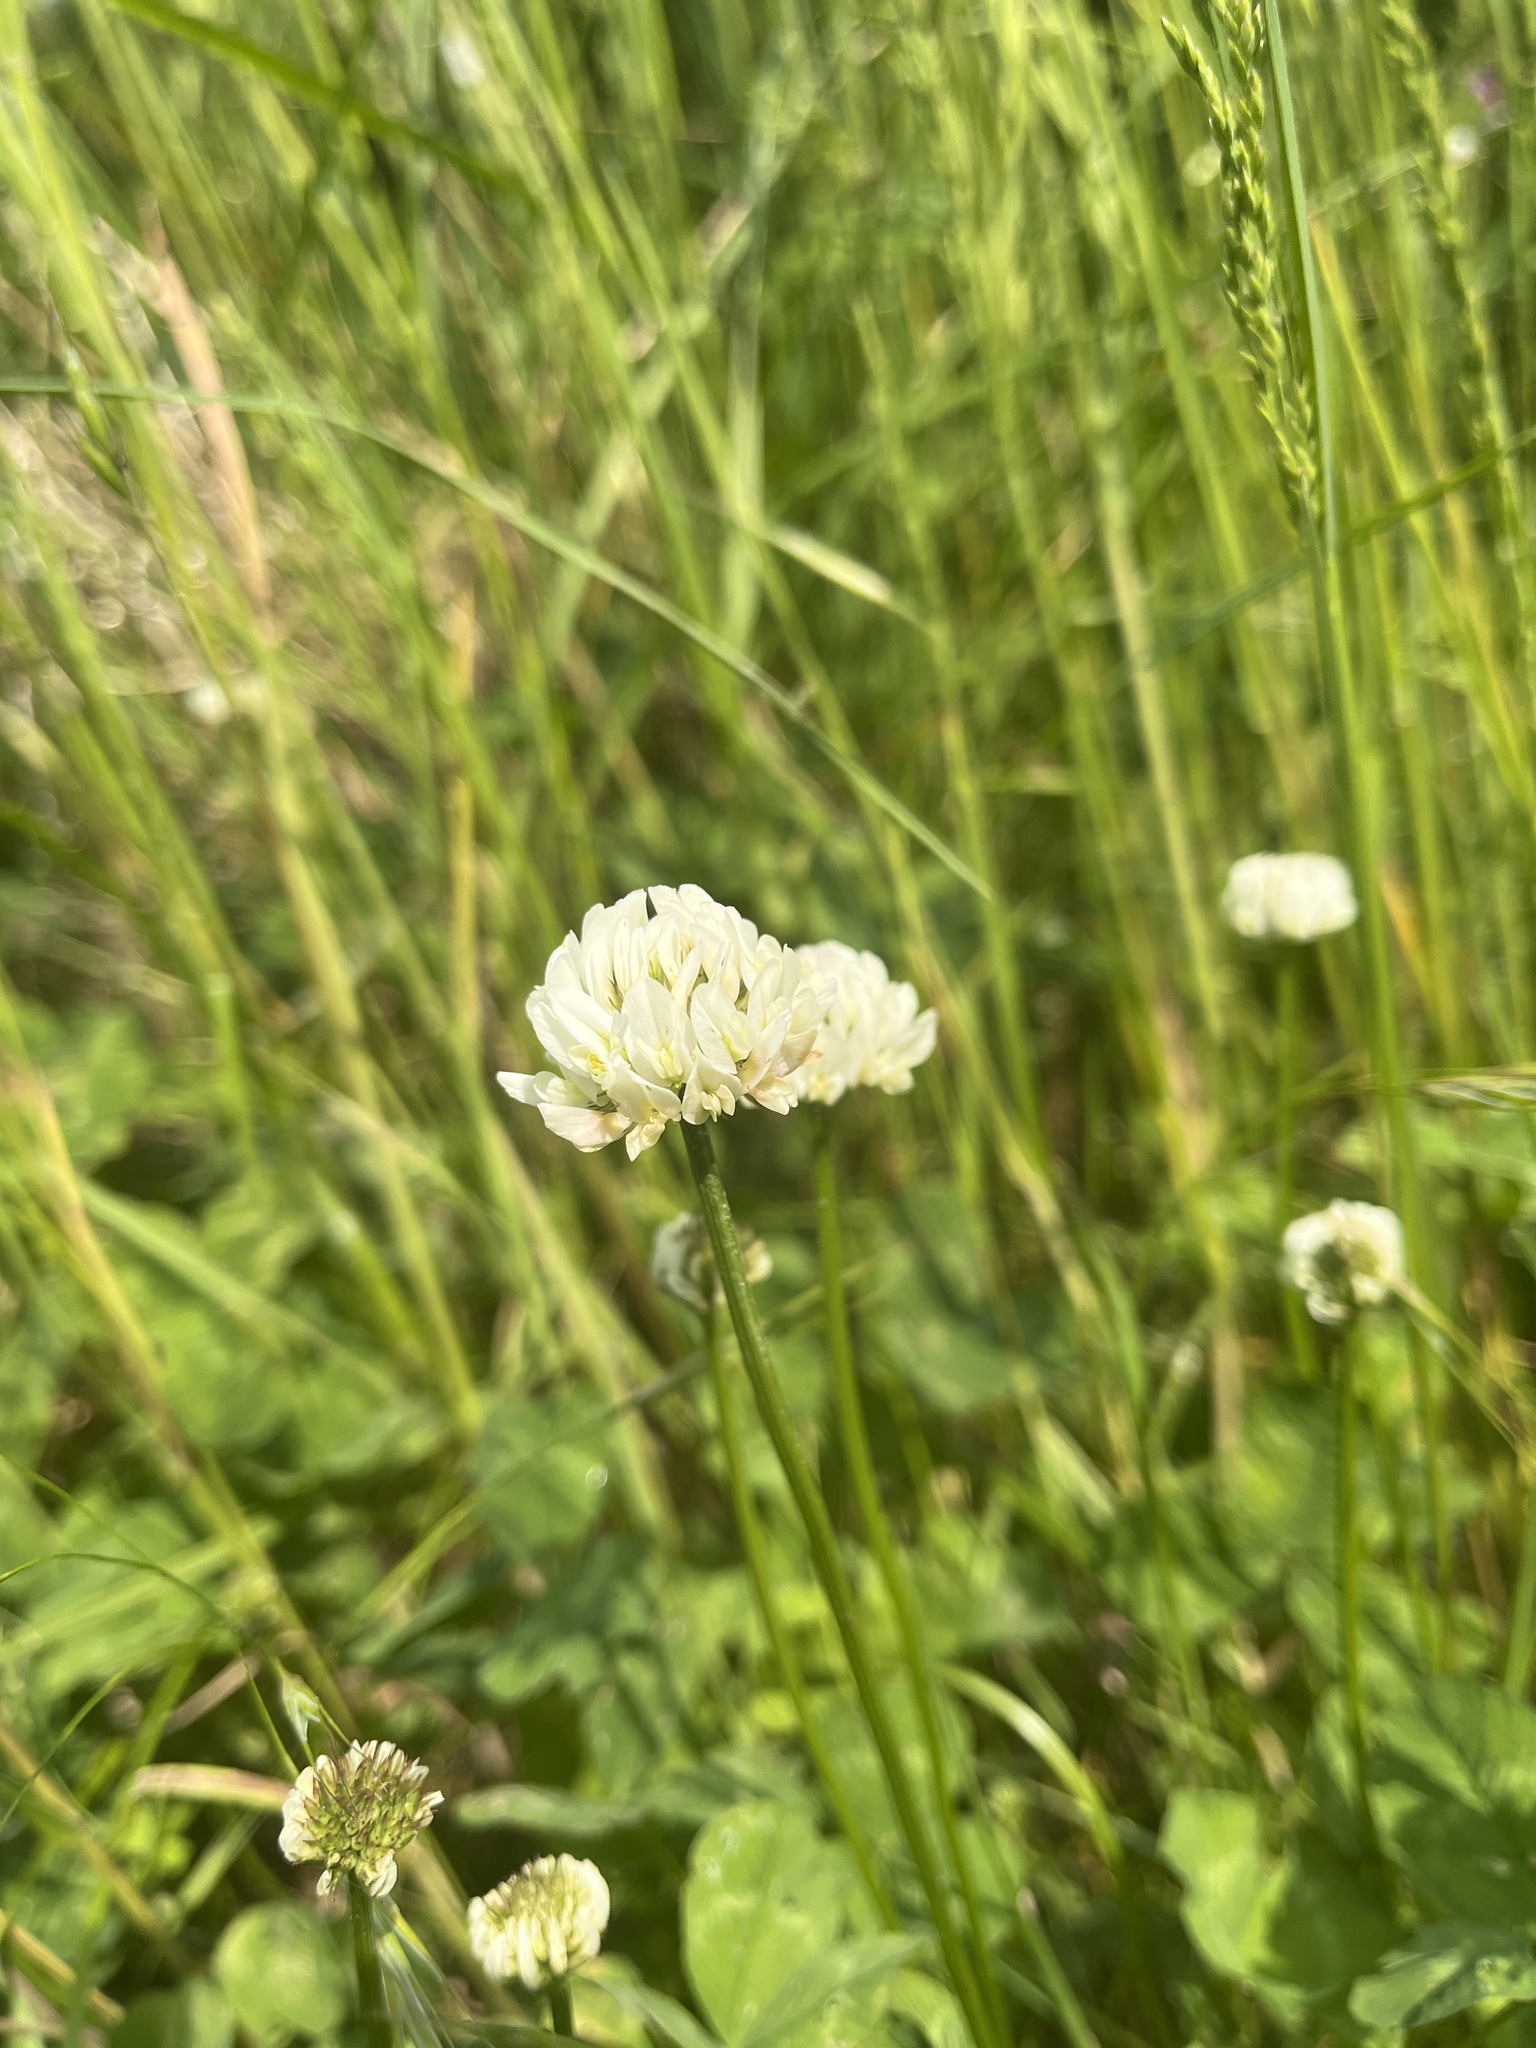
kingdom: Plantae
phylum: Tracheophyta
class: Magnoliopsida
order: Fabales
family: Fabaceae
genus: Trifolium
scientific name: Trifolium repens
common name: White clover
